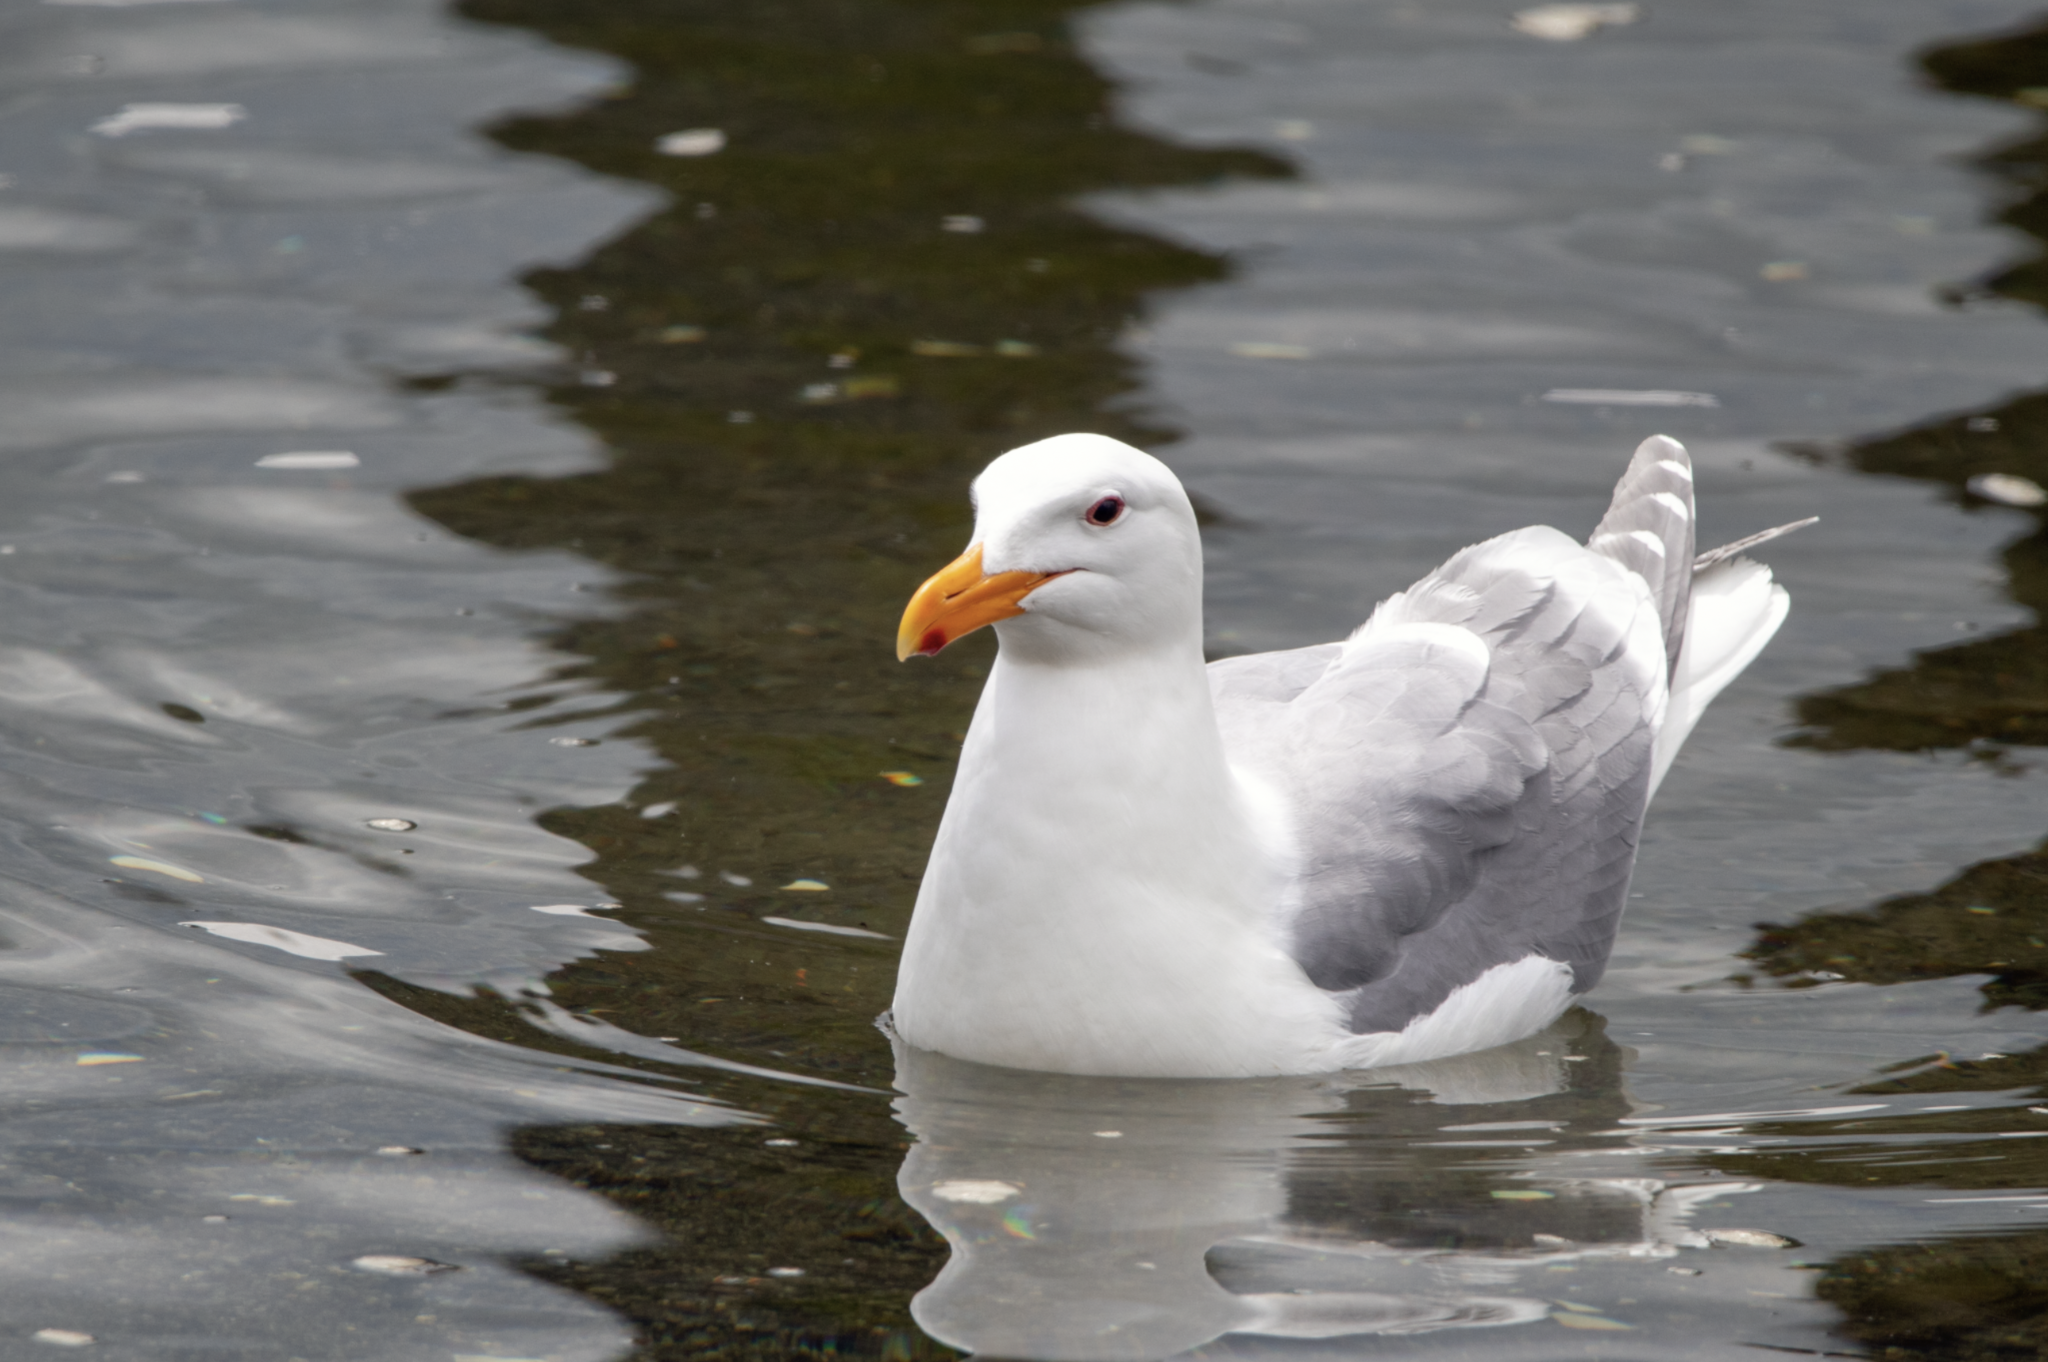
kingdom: Animalia
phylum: Chordata
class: Aves
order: Charadriiformes
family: Laridae
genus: Larus
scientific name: Larus glaucescens
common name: Glaucous-winged gull
